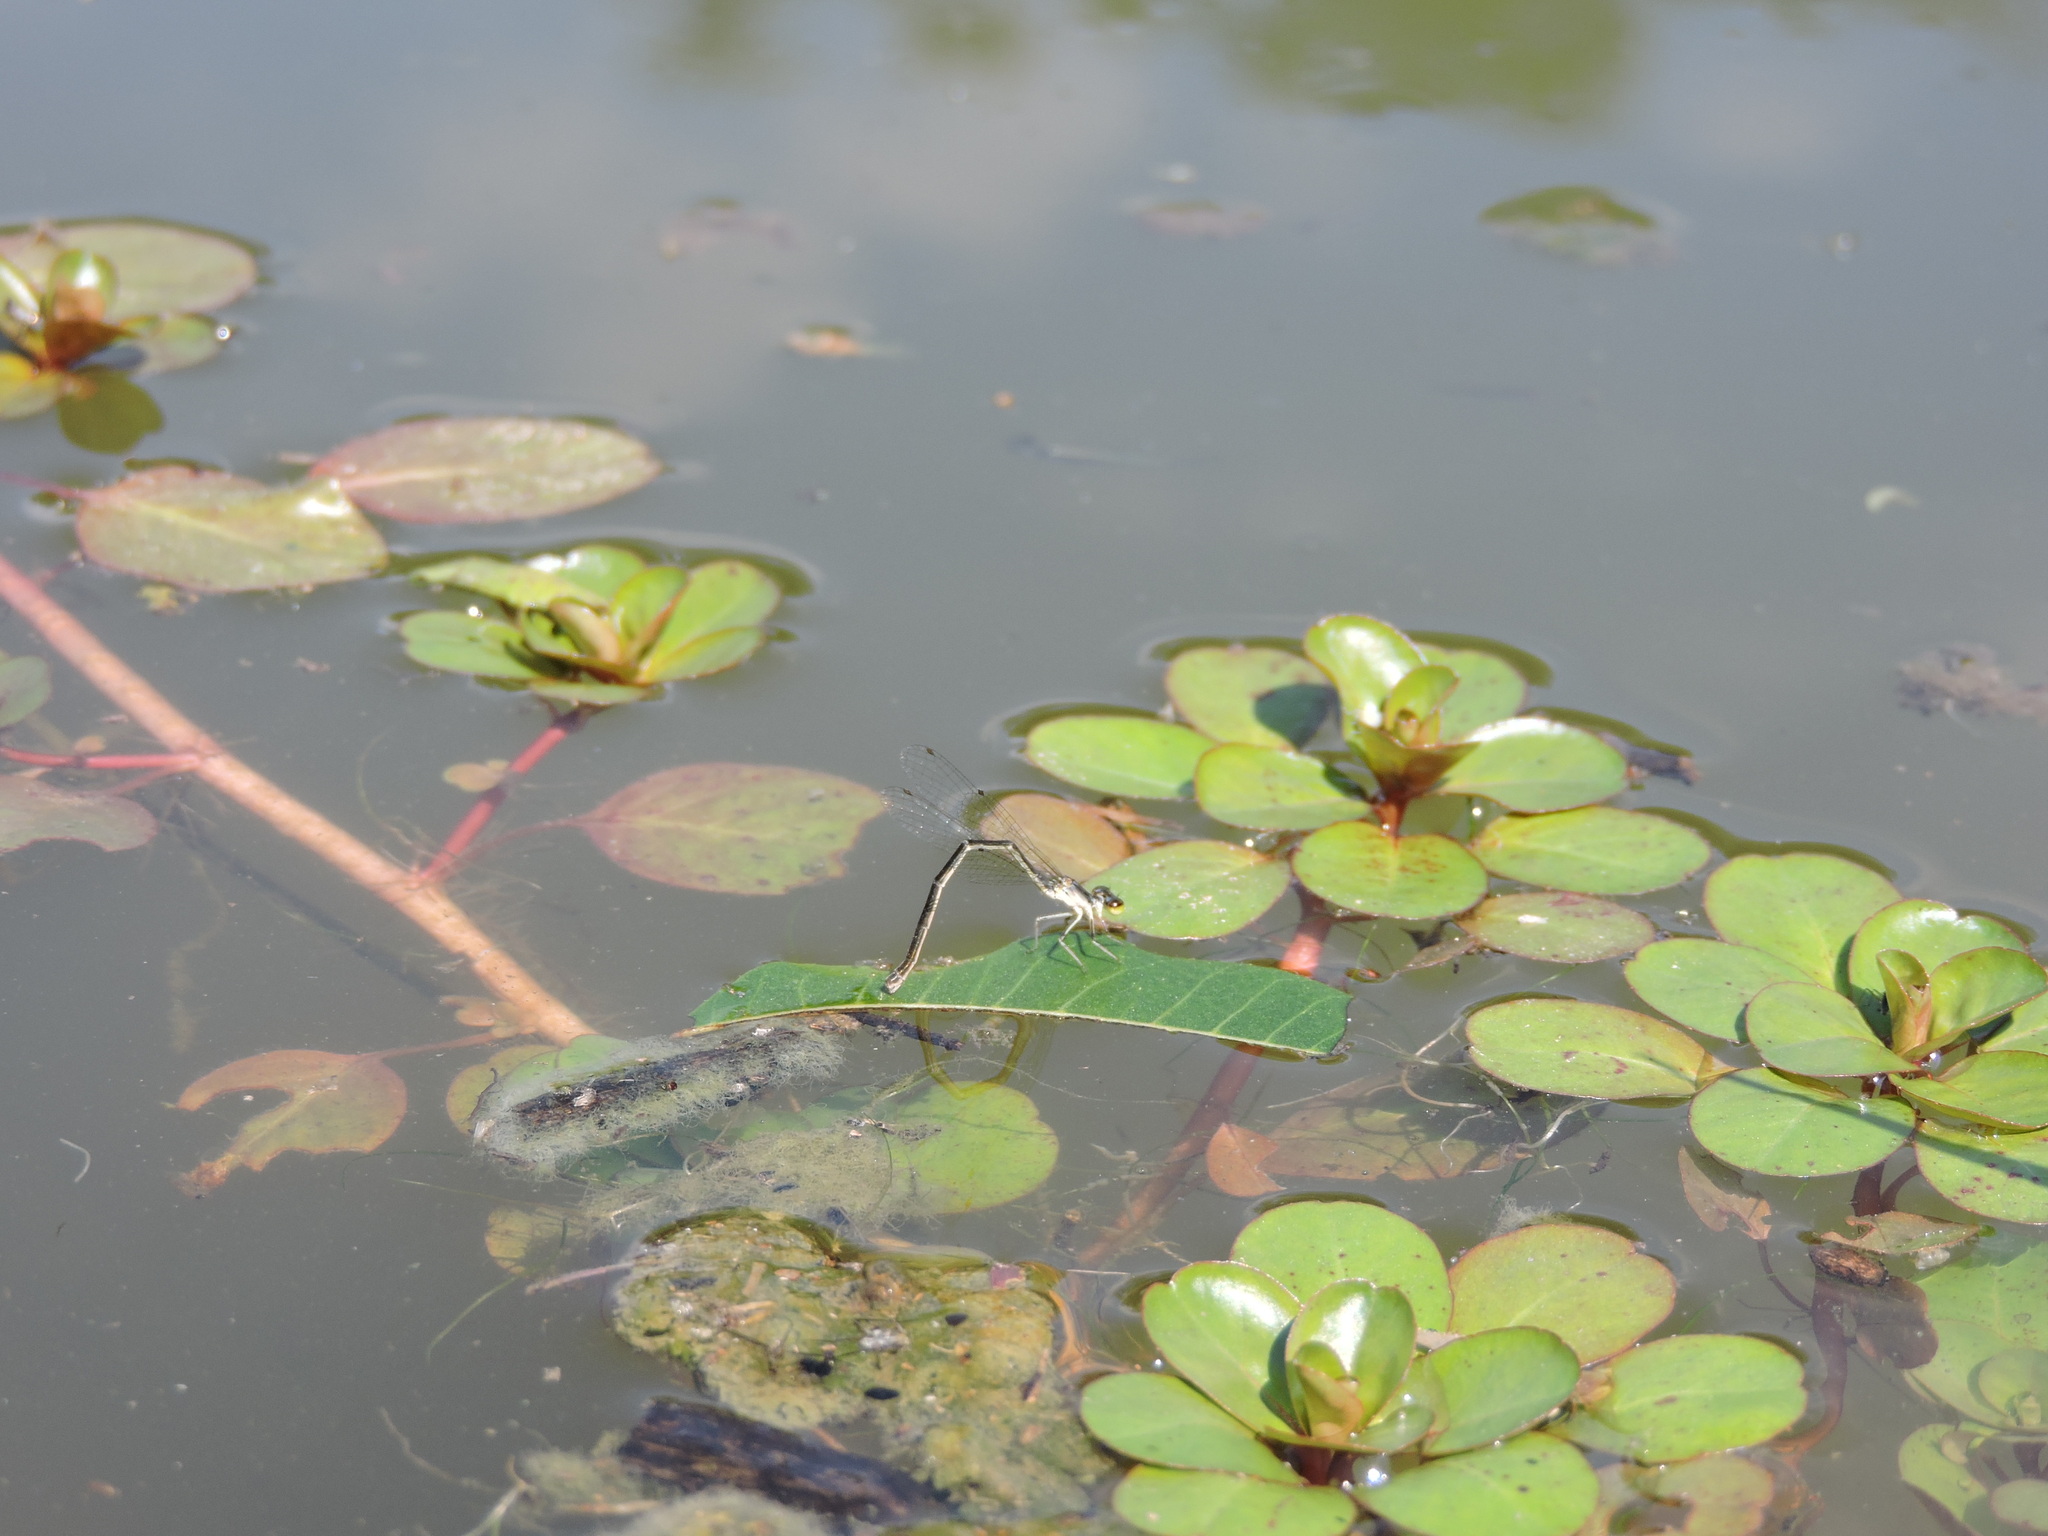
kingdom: Animalia
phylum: Arthropoda
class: Insecta
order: Odonata
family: Coenagrionidae
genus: Ischnura
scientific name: Ischnura posita
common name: Fragile forktail
